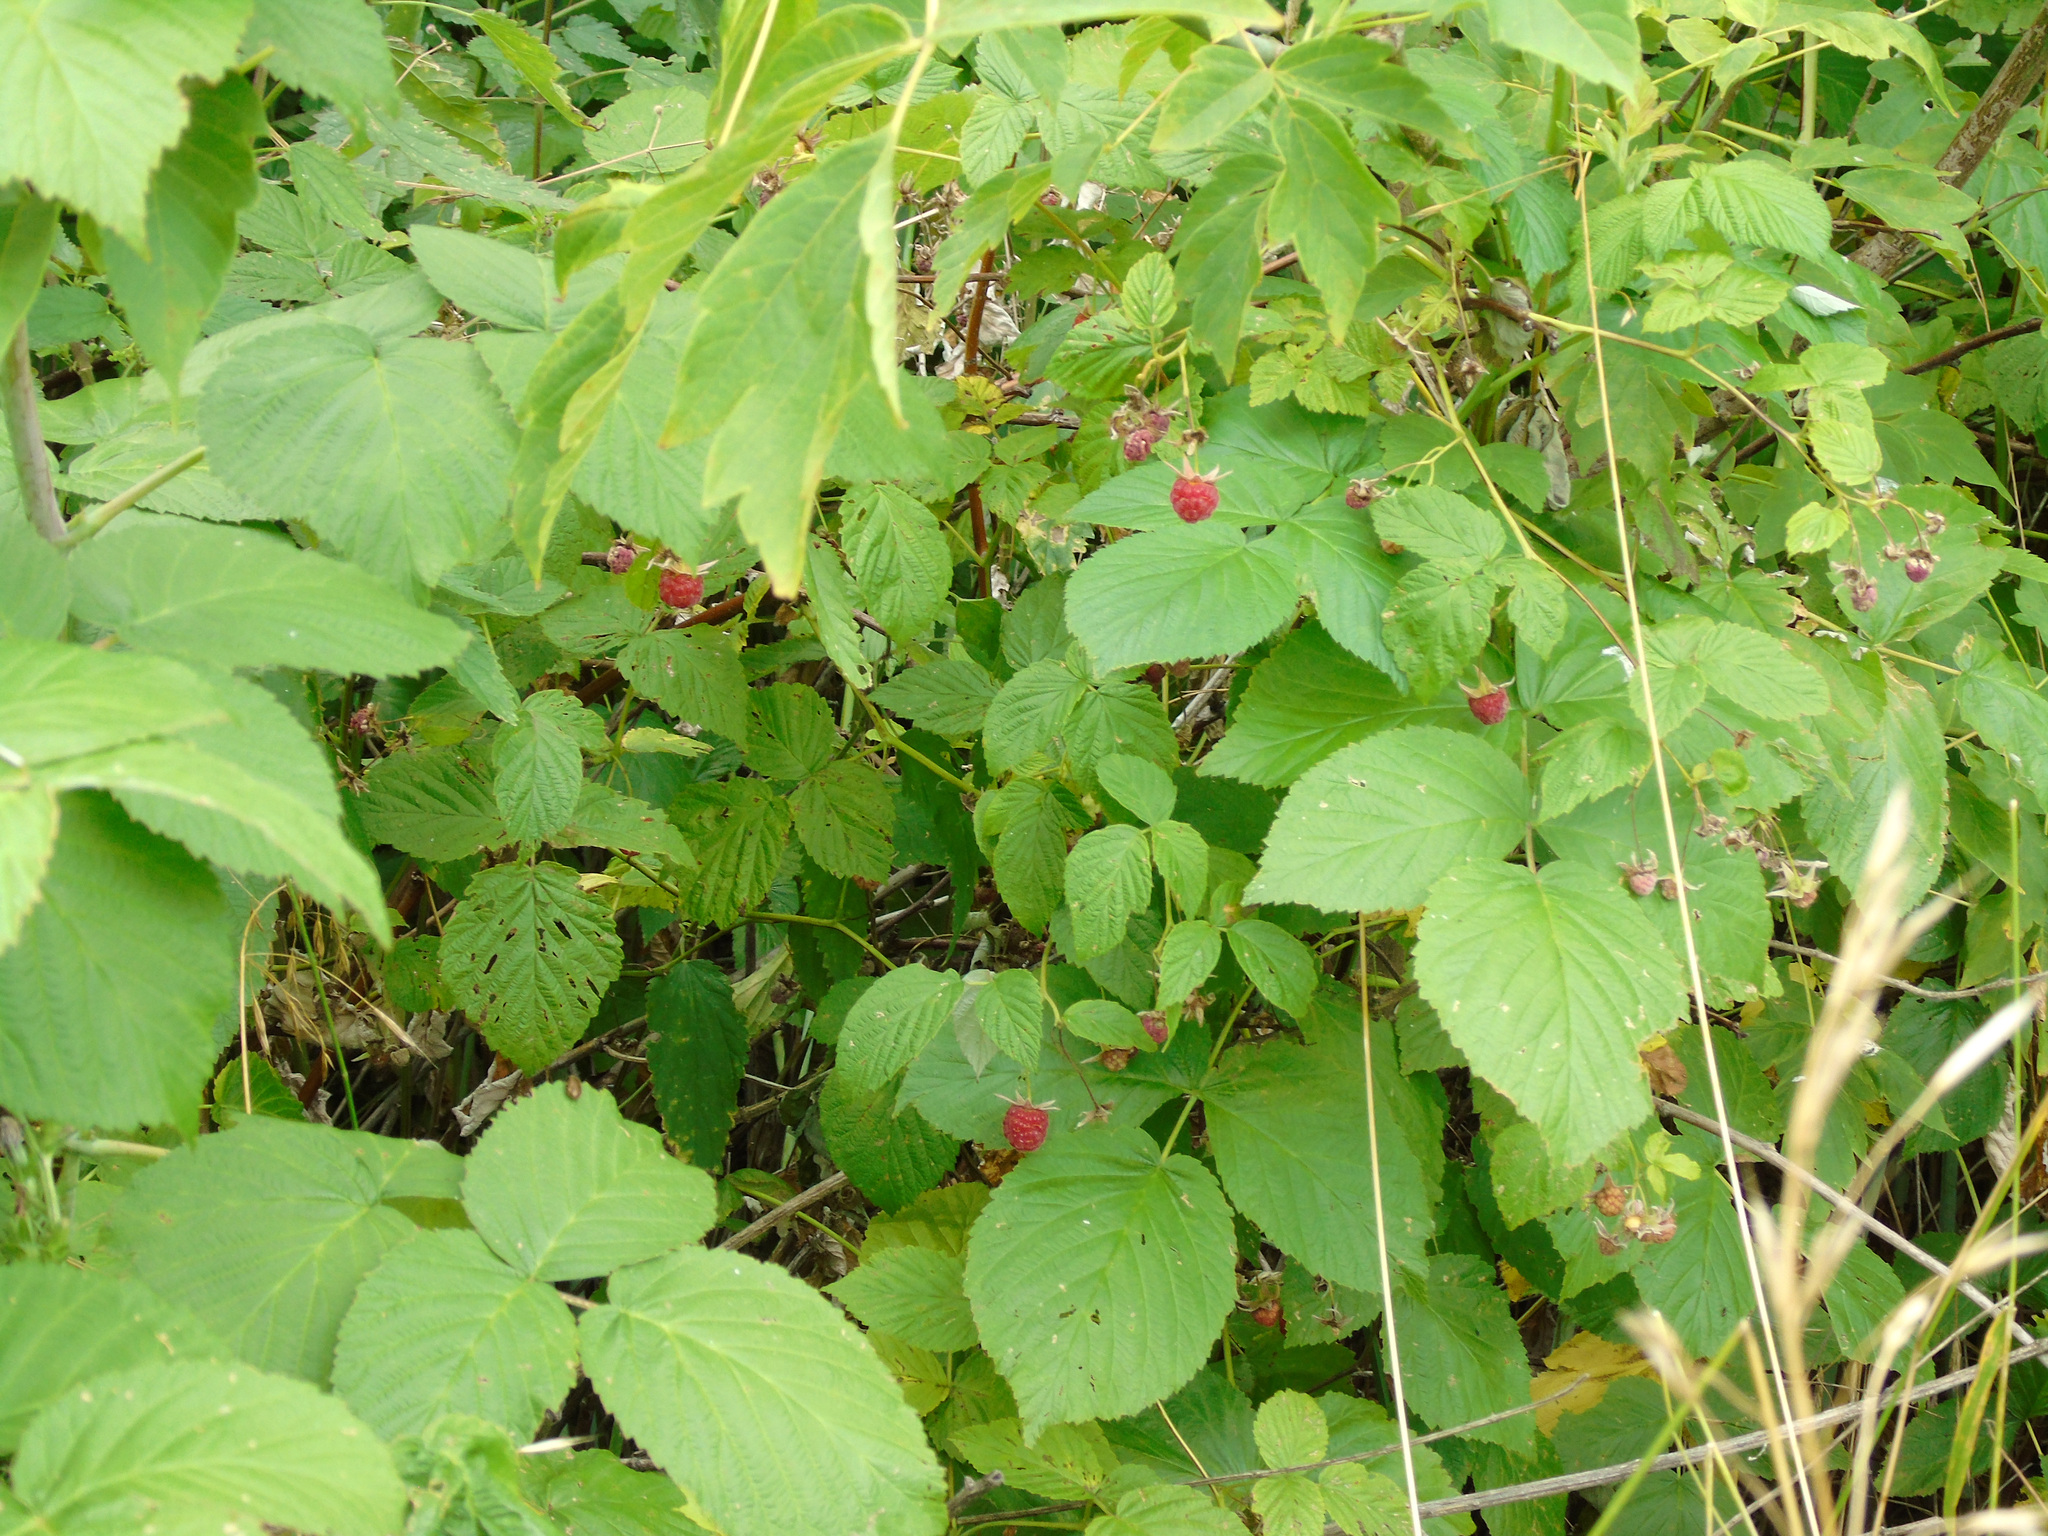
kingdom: Plantae
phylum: Tracheophyta
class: Magnoliopsida
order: Rosales
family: Rosaceae
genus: Rubus
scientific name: Rubus idaeus
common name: Raspberry
